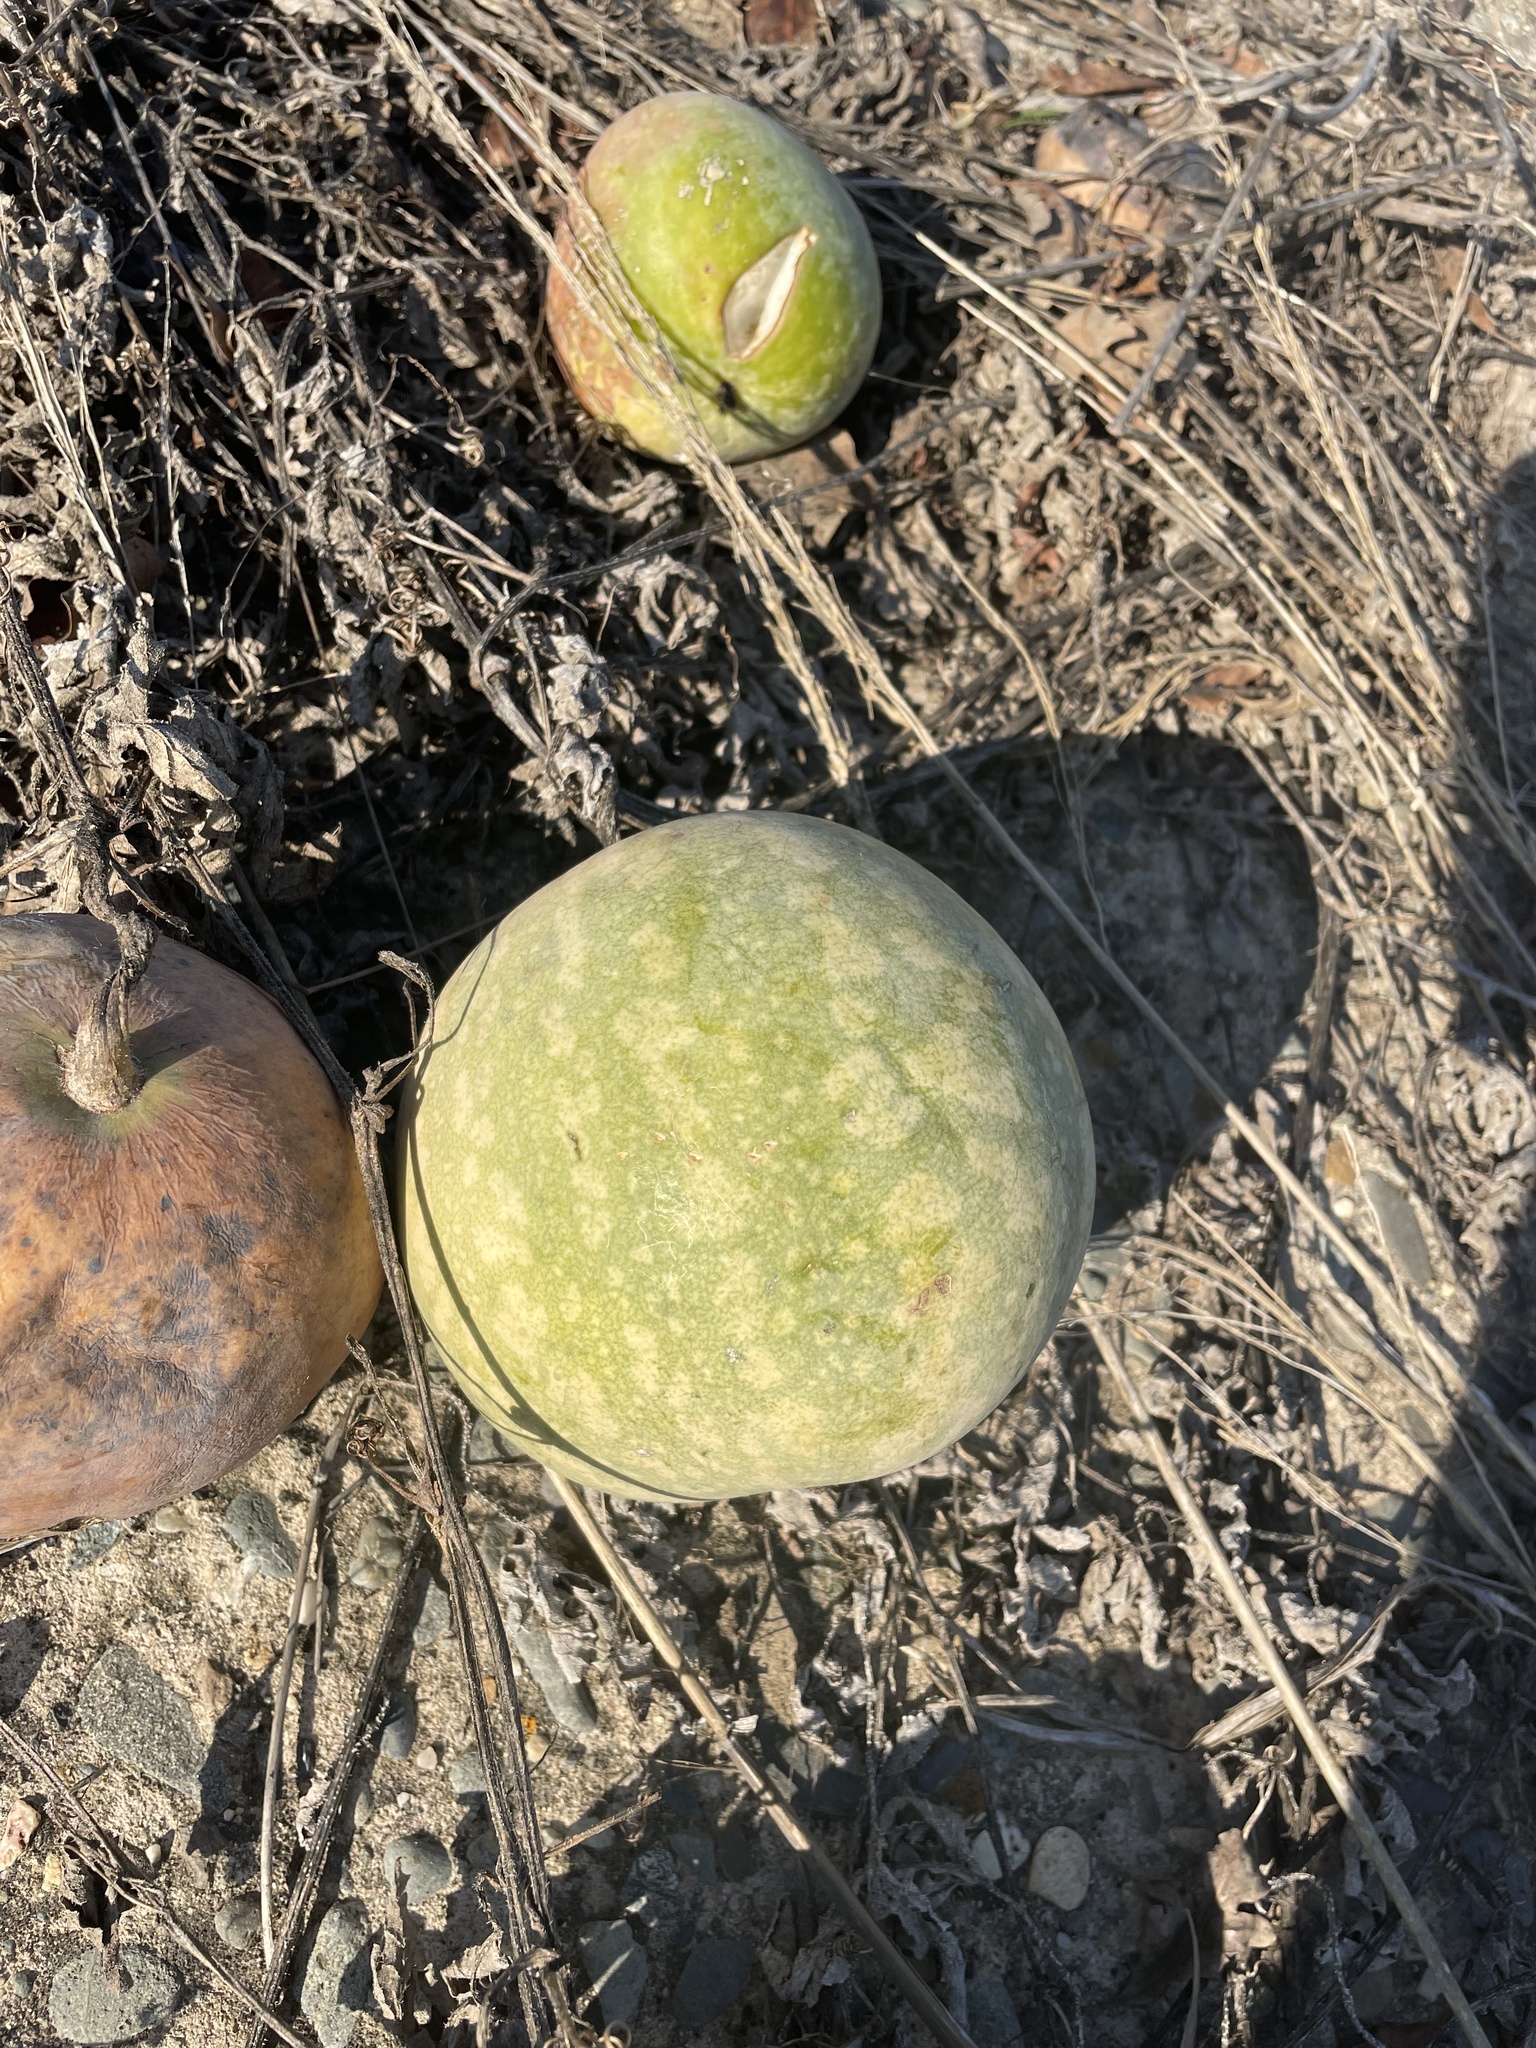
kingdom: Plantae
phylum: Tracheophyta
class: Magnoliopsida
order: Cucurbitales
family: Cucurbitaceae
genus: Citrullus
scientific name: Citrullus colocynthis
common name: Colocynth
